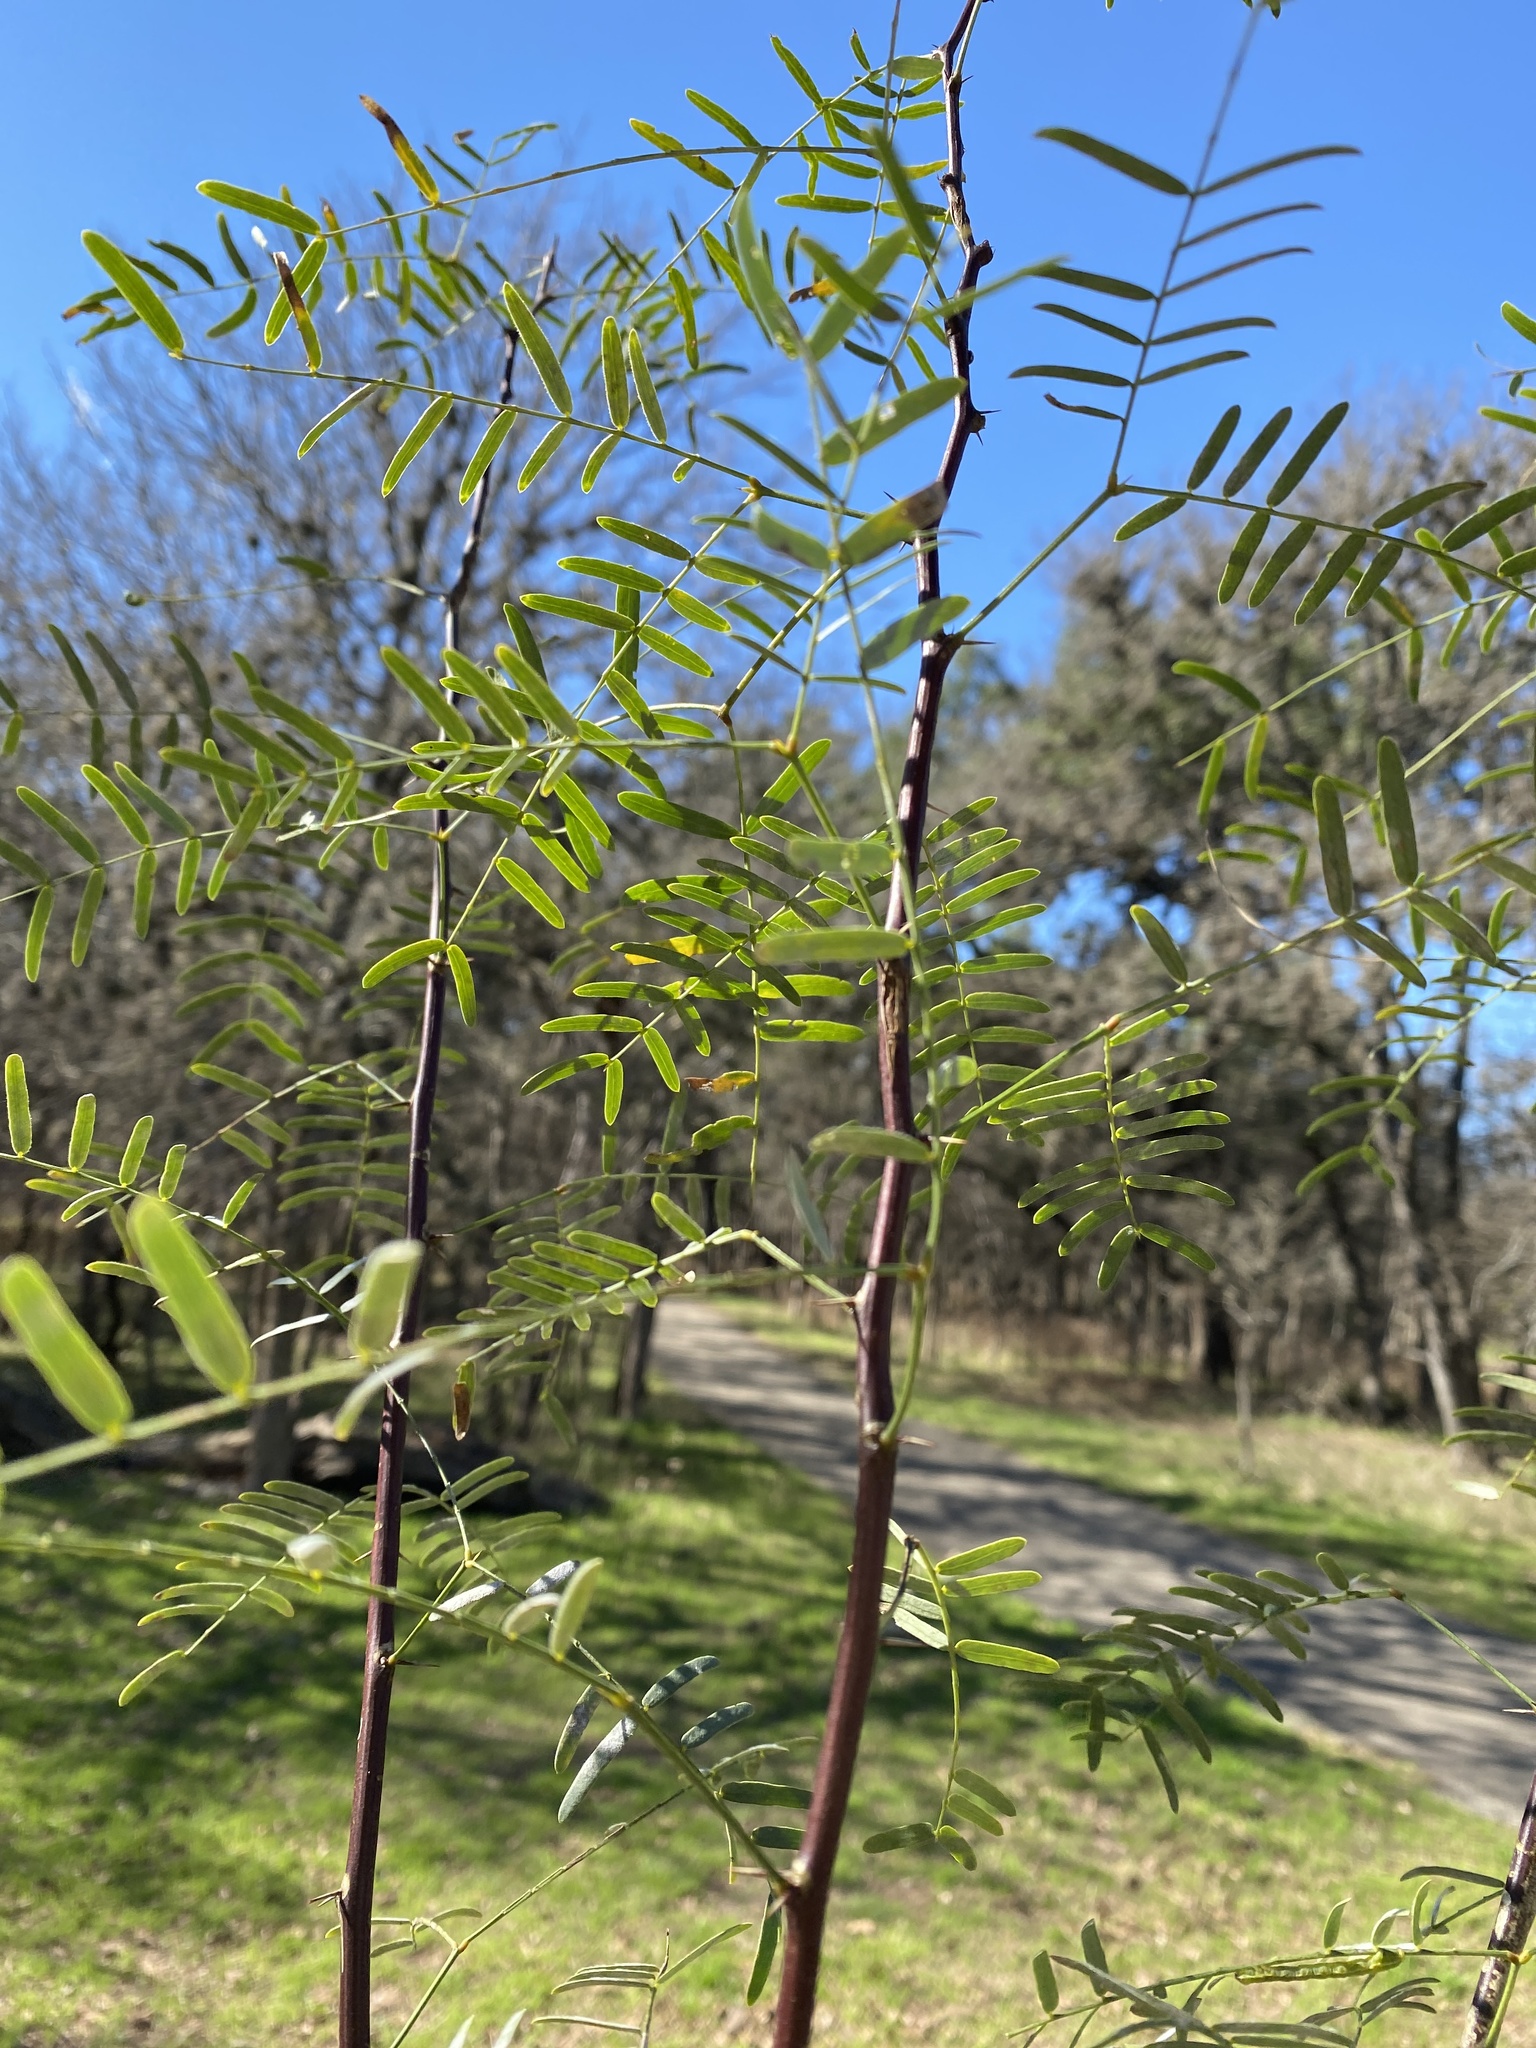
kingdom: Plantae
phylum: Tracheophyta
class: Magnoliopsida
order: Fabales
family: Fabaceae
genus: Prosopis
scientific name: Prosopis glandulosa
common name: Honey mesquite
